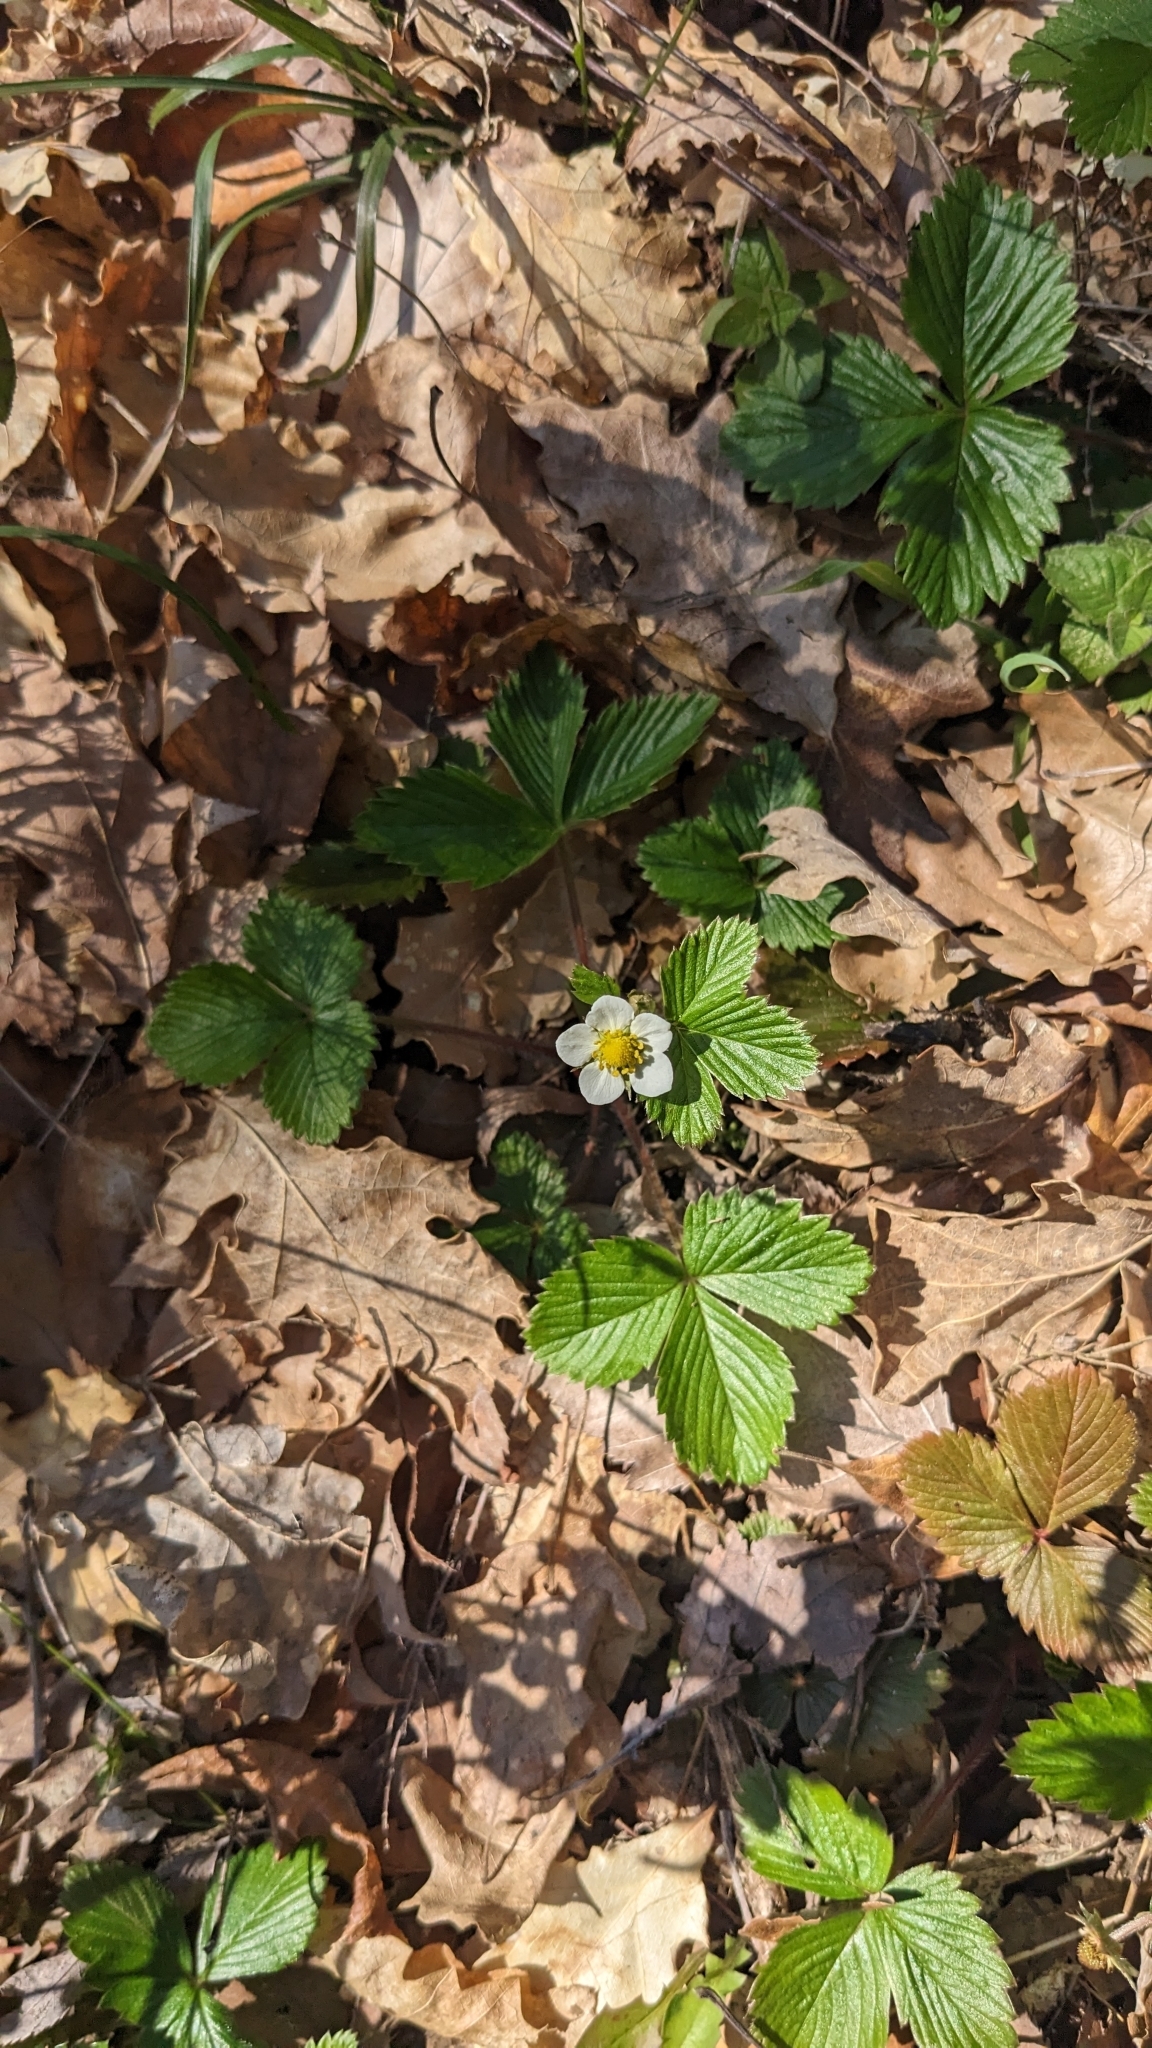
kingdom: Plantae
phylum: Tracheophyta
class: Magnoliopsida
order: Rosales
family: Rosaceae
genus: Fragaria
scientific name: Fragaria vesca
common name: Wild strawberry
